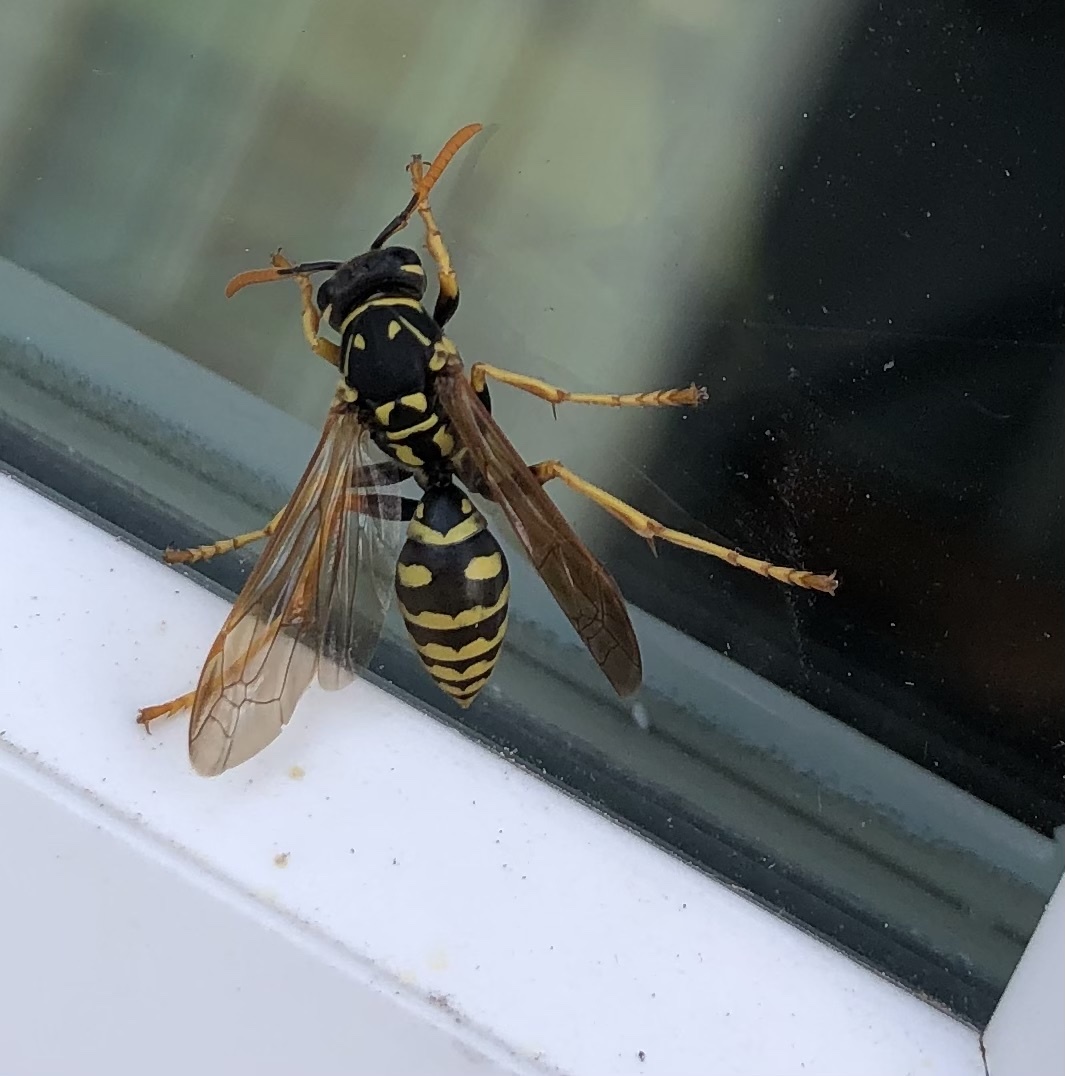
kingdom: Animalia
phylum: Arthropoda
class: Insecta
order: Hymenoptera
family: Eumenidae
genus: Polistes
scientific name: Polistes dominula
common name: Paper wasp
